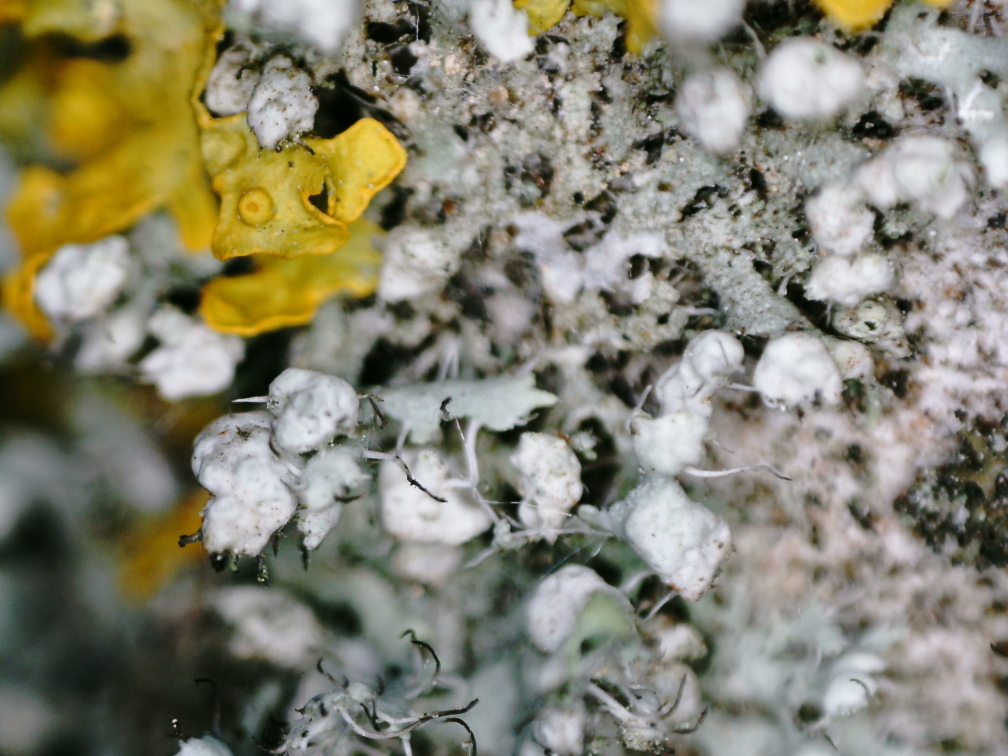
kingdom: Fungi
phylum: Ascomycota
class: Lecanoromycetes
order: Caliciales
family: Physciaceae
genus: Physcia
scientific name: Physcia adscendens
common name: Hooded rosette lichen
